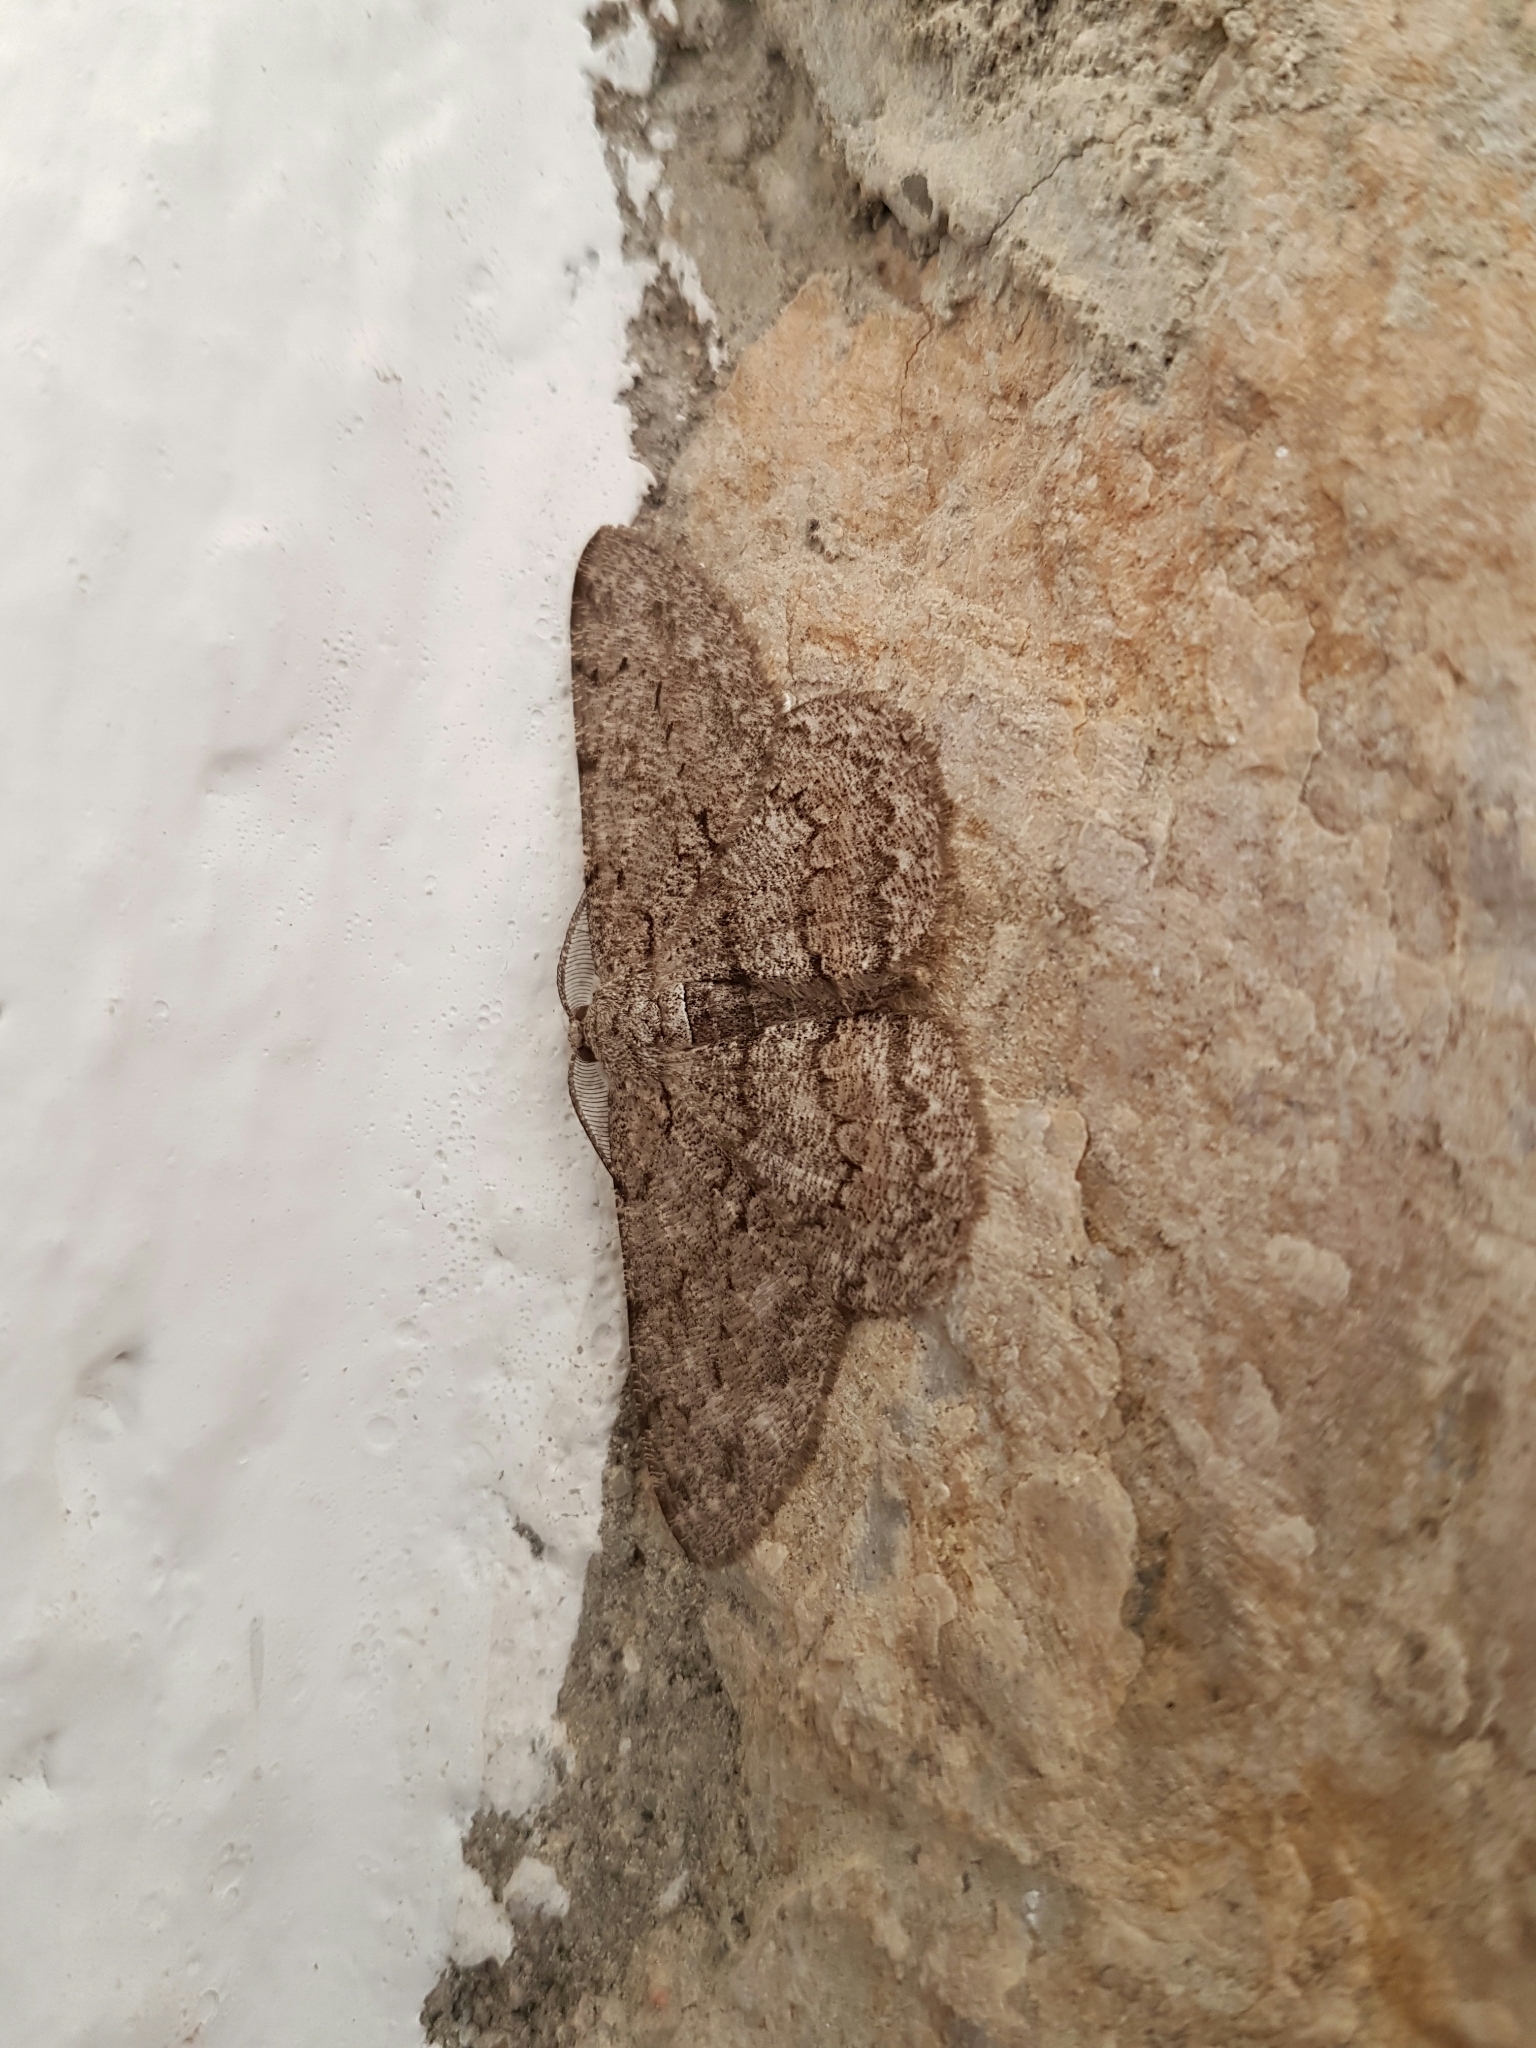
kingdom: Animalia
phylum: Arthropoda
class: Insecta
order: Lepidoptera
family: Geometridae
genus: Hypomecis
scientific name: Hypomecis punctinalis
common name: Pale oak beauty
